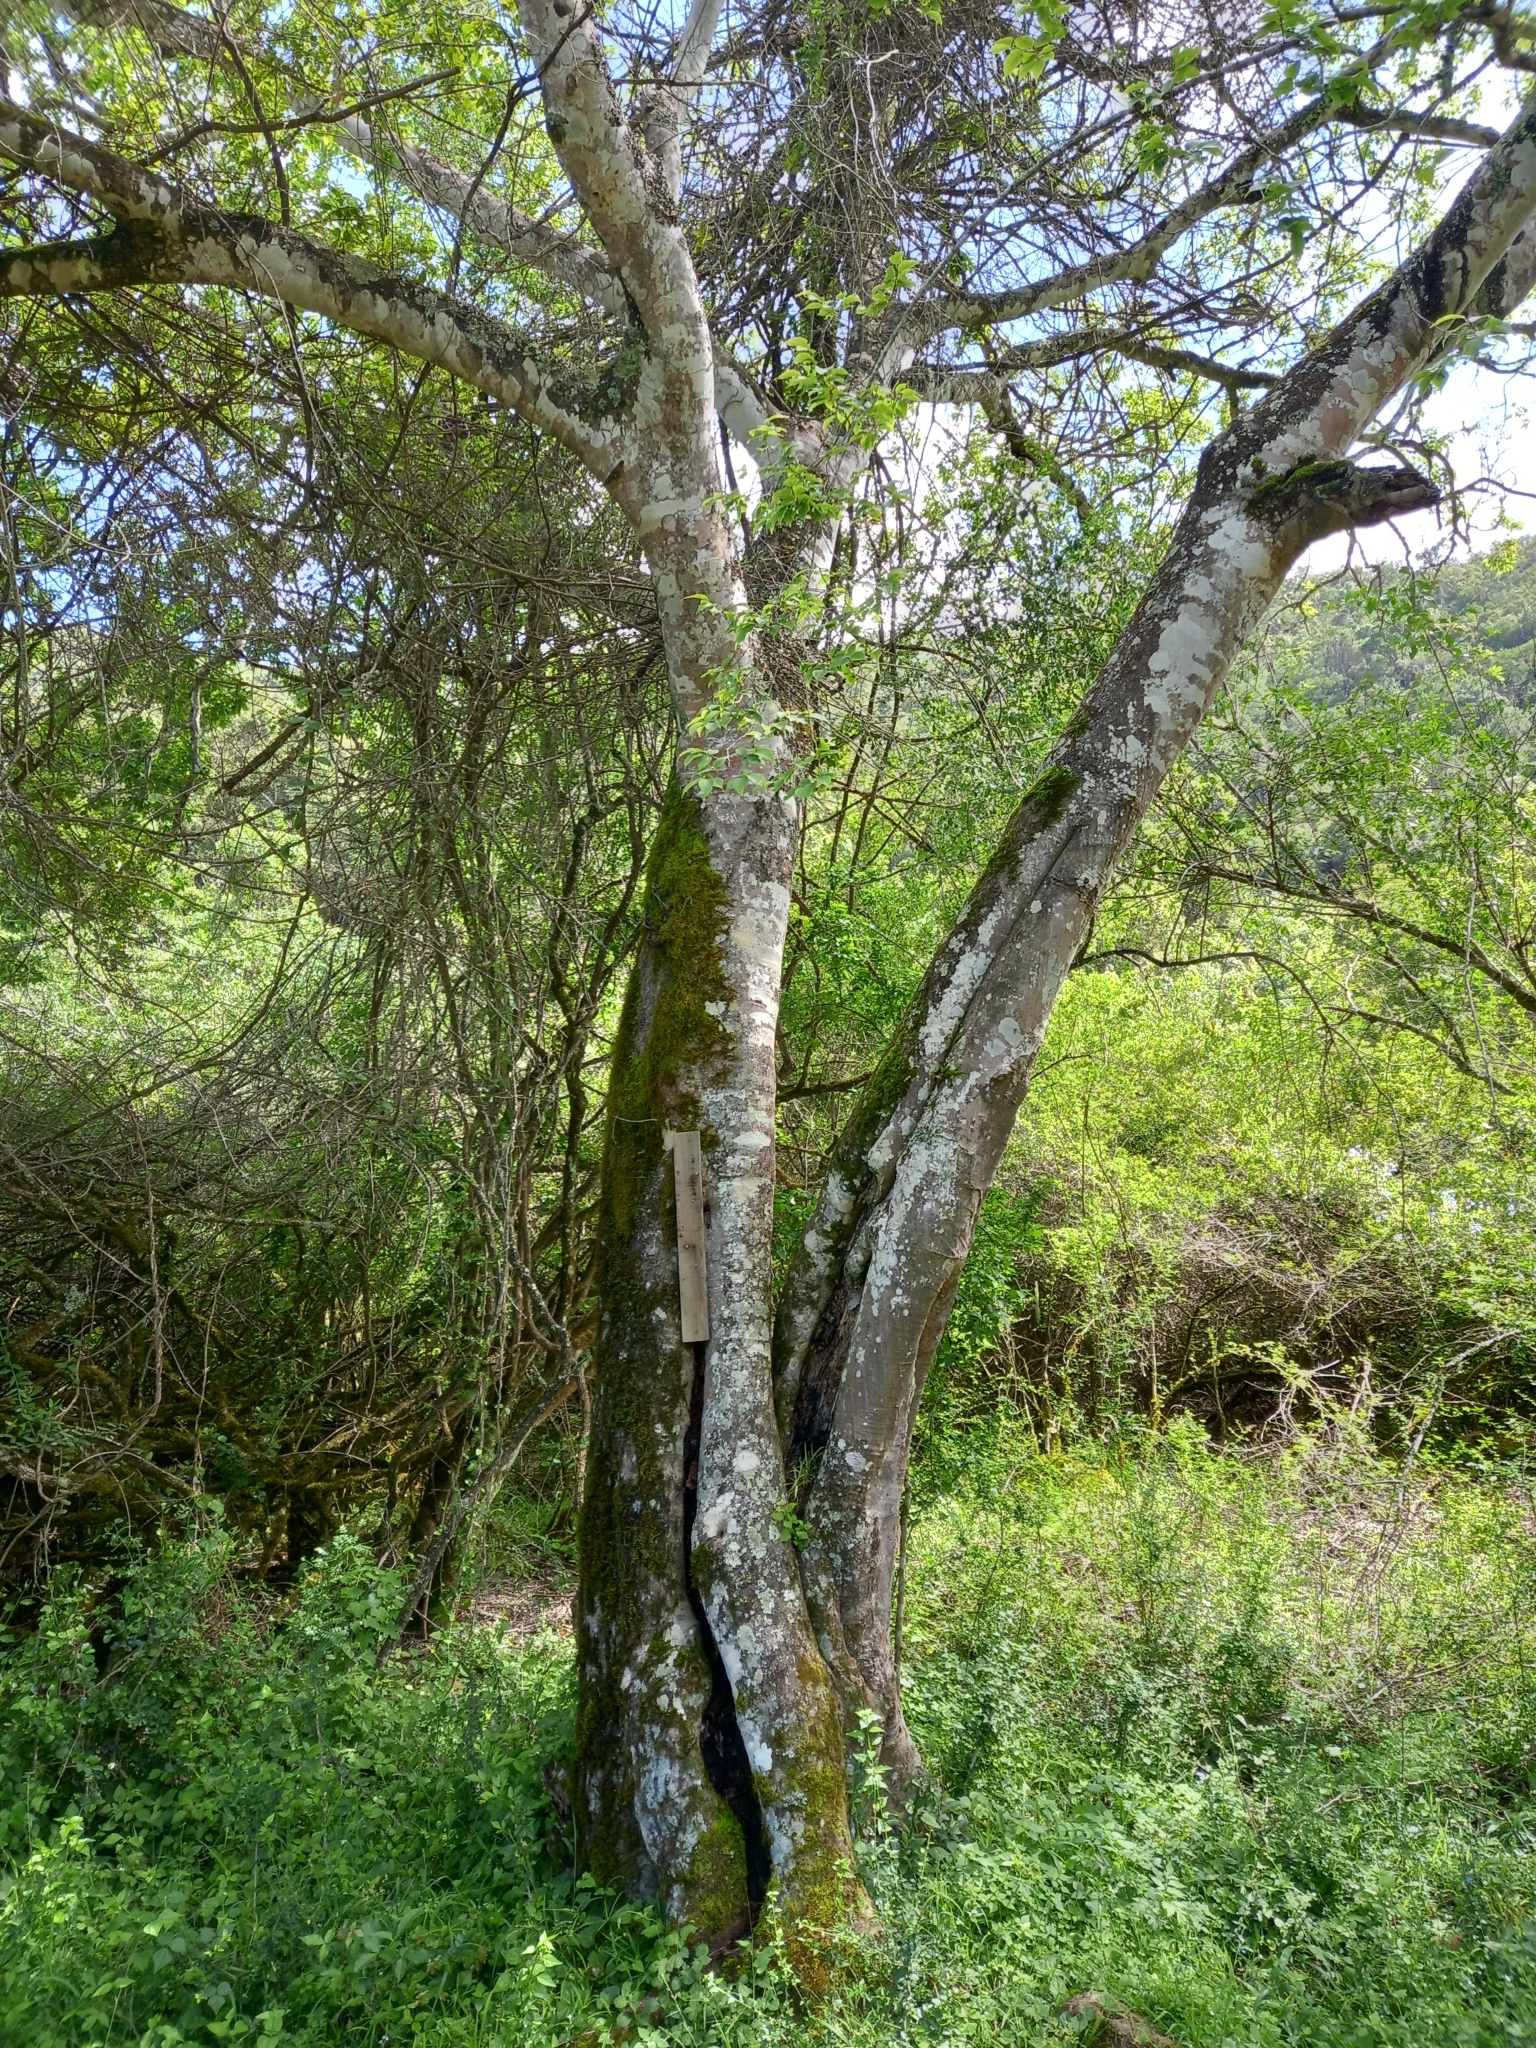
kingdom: Plantae
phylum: Tracheophyta
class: Magnoliopsida
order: Rosales
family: Cannabaceae
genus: Celtis
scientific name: Celtis africana
